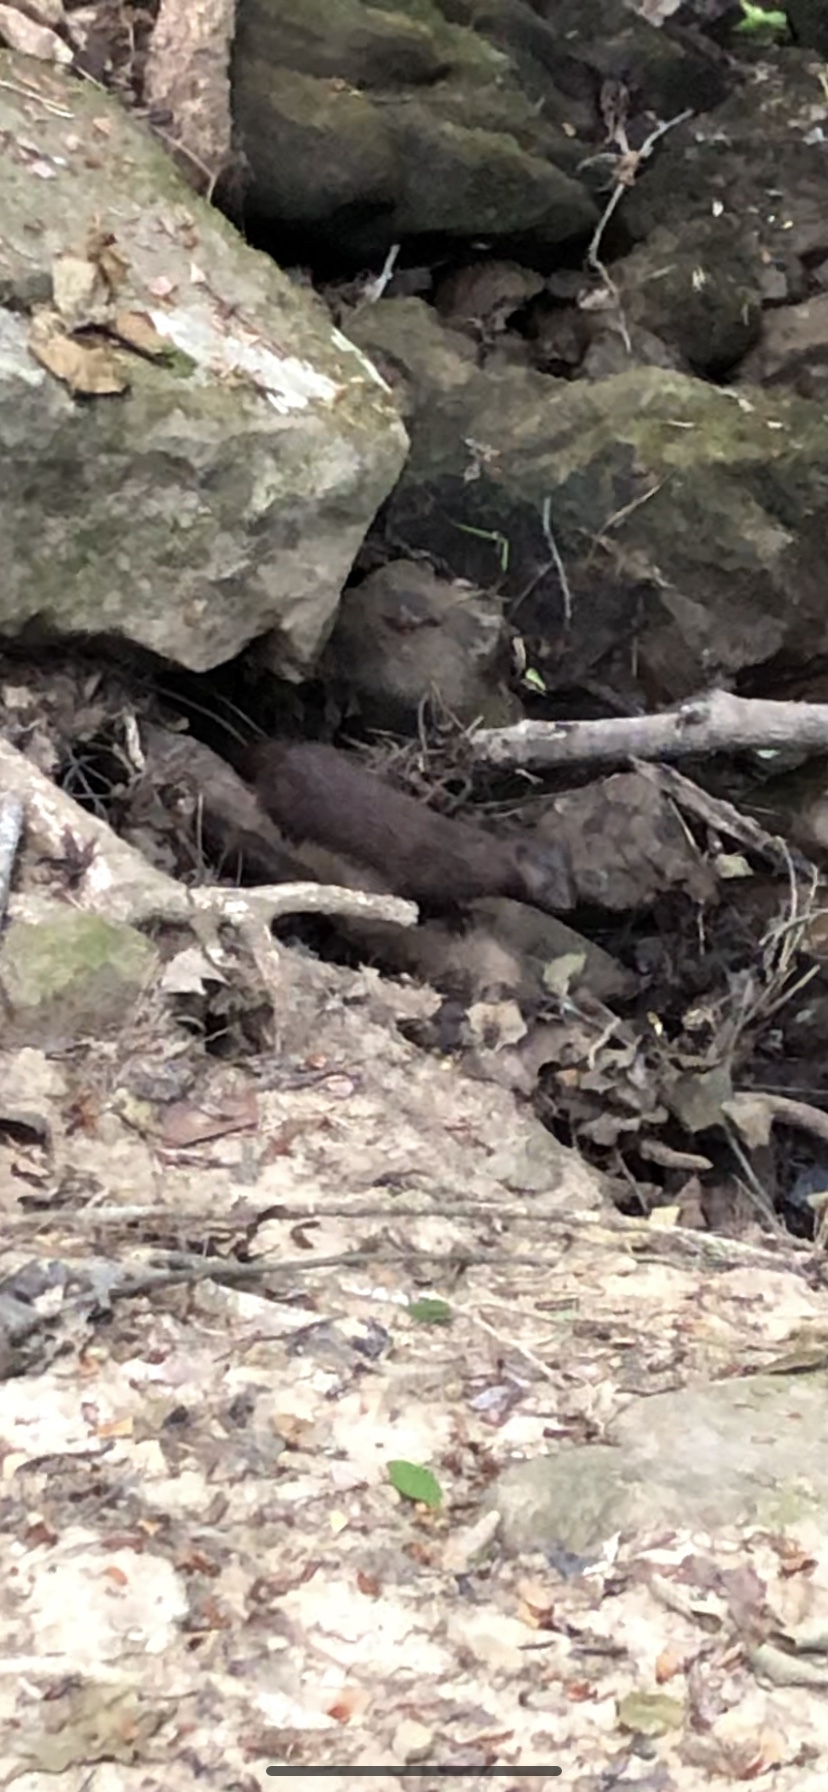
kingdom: Animalia
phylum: Chordata
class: Mammalia
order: Carnivora
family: Mustelidae
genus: Mustela
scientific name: Mustela
